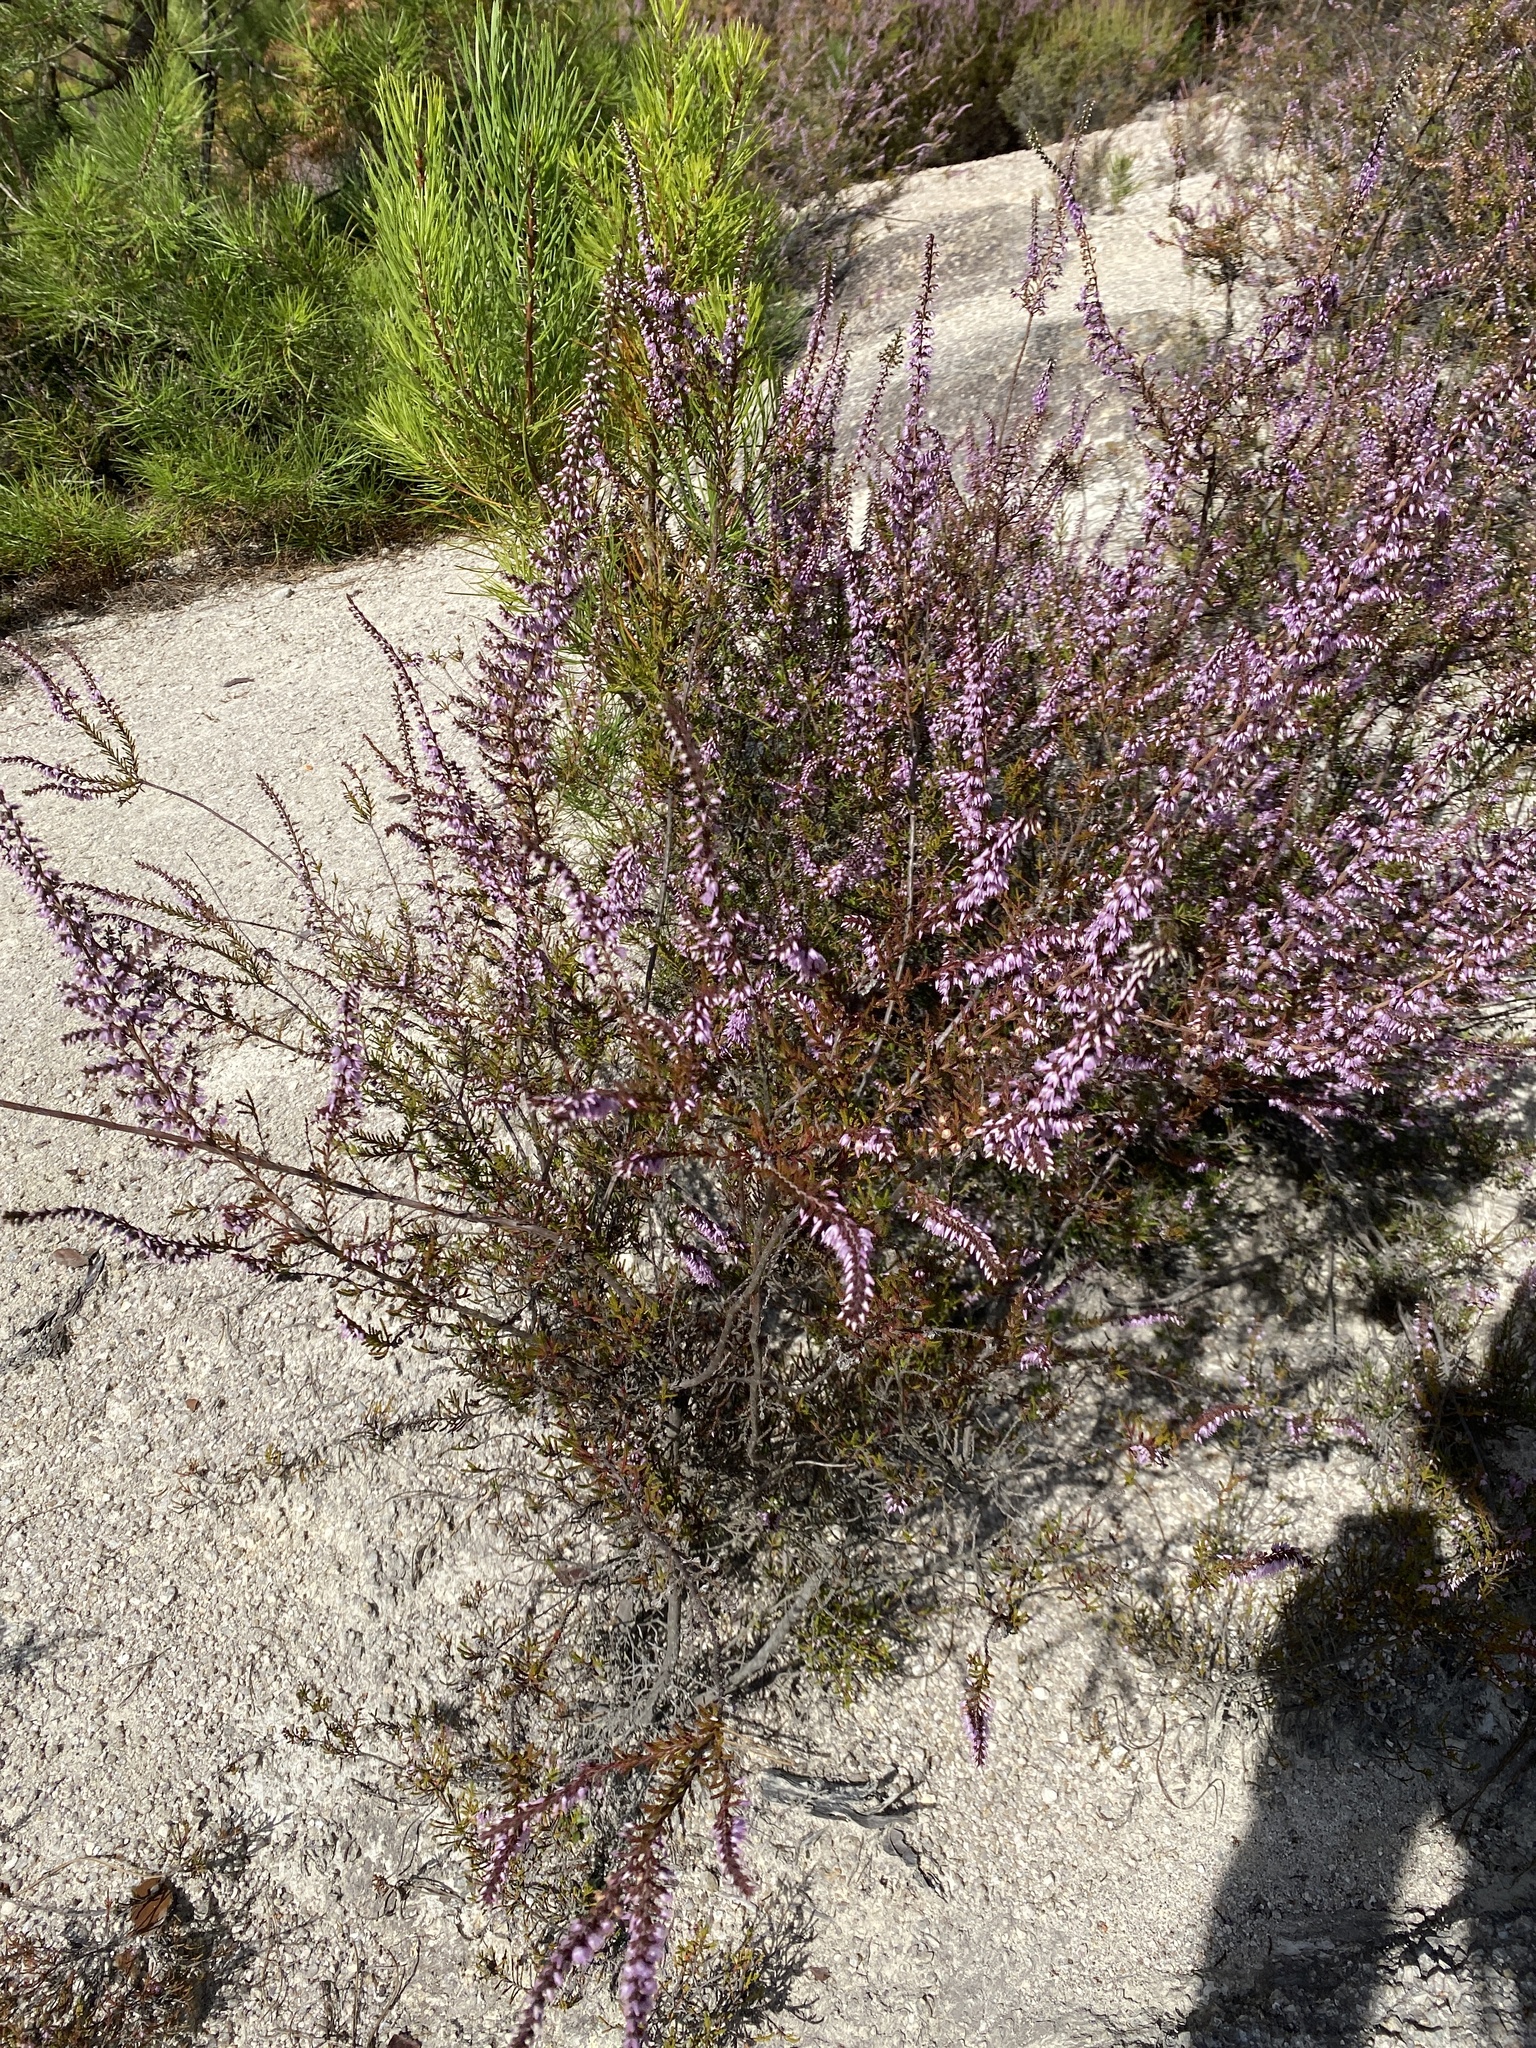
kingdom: Plantae
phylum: Tracheophyta
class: Magnoliopsida
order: Ericales
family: Ericaceae
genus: Calluna
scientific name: Calluna vulgaris
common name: Heather
